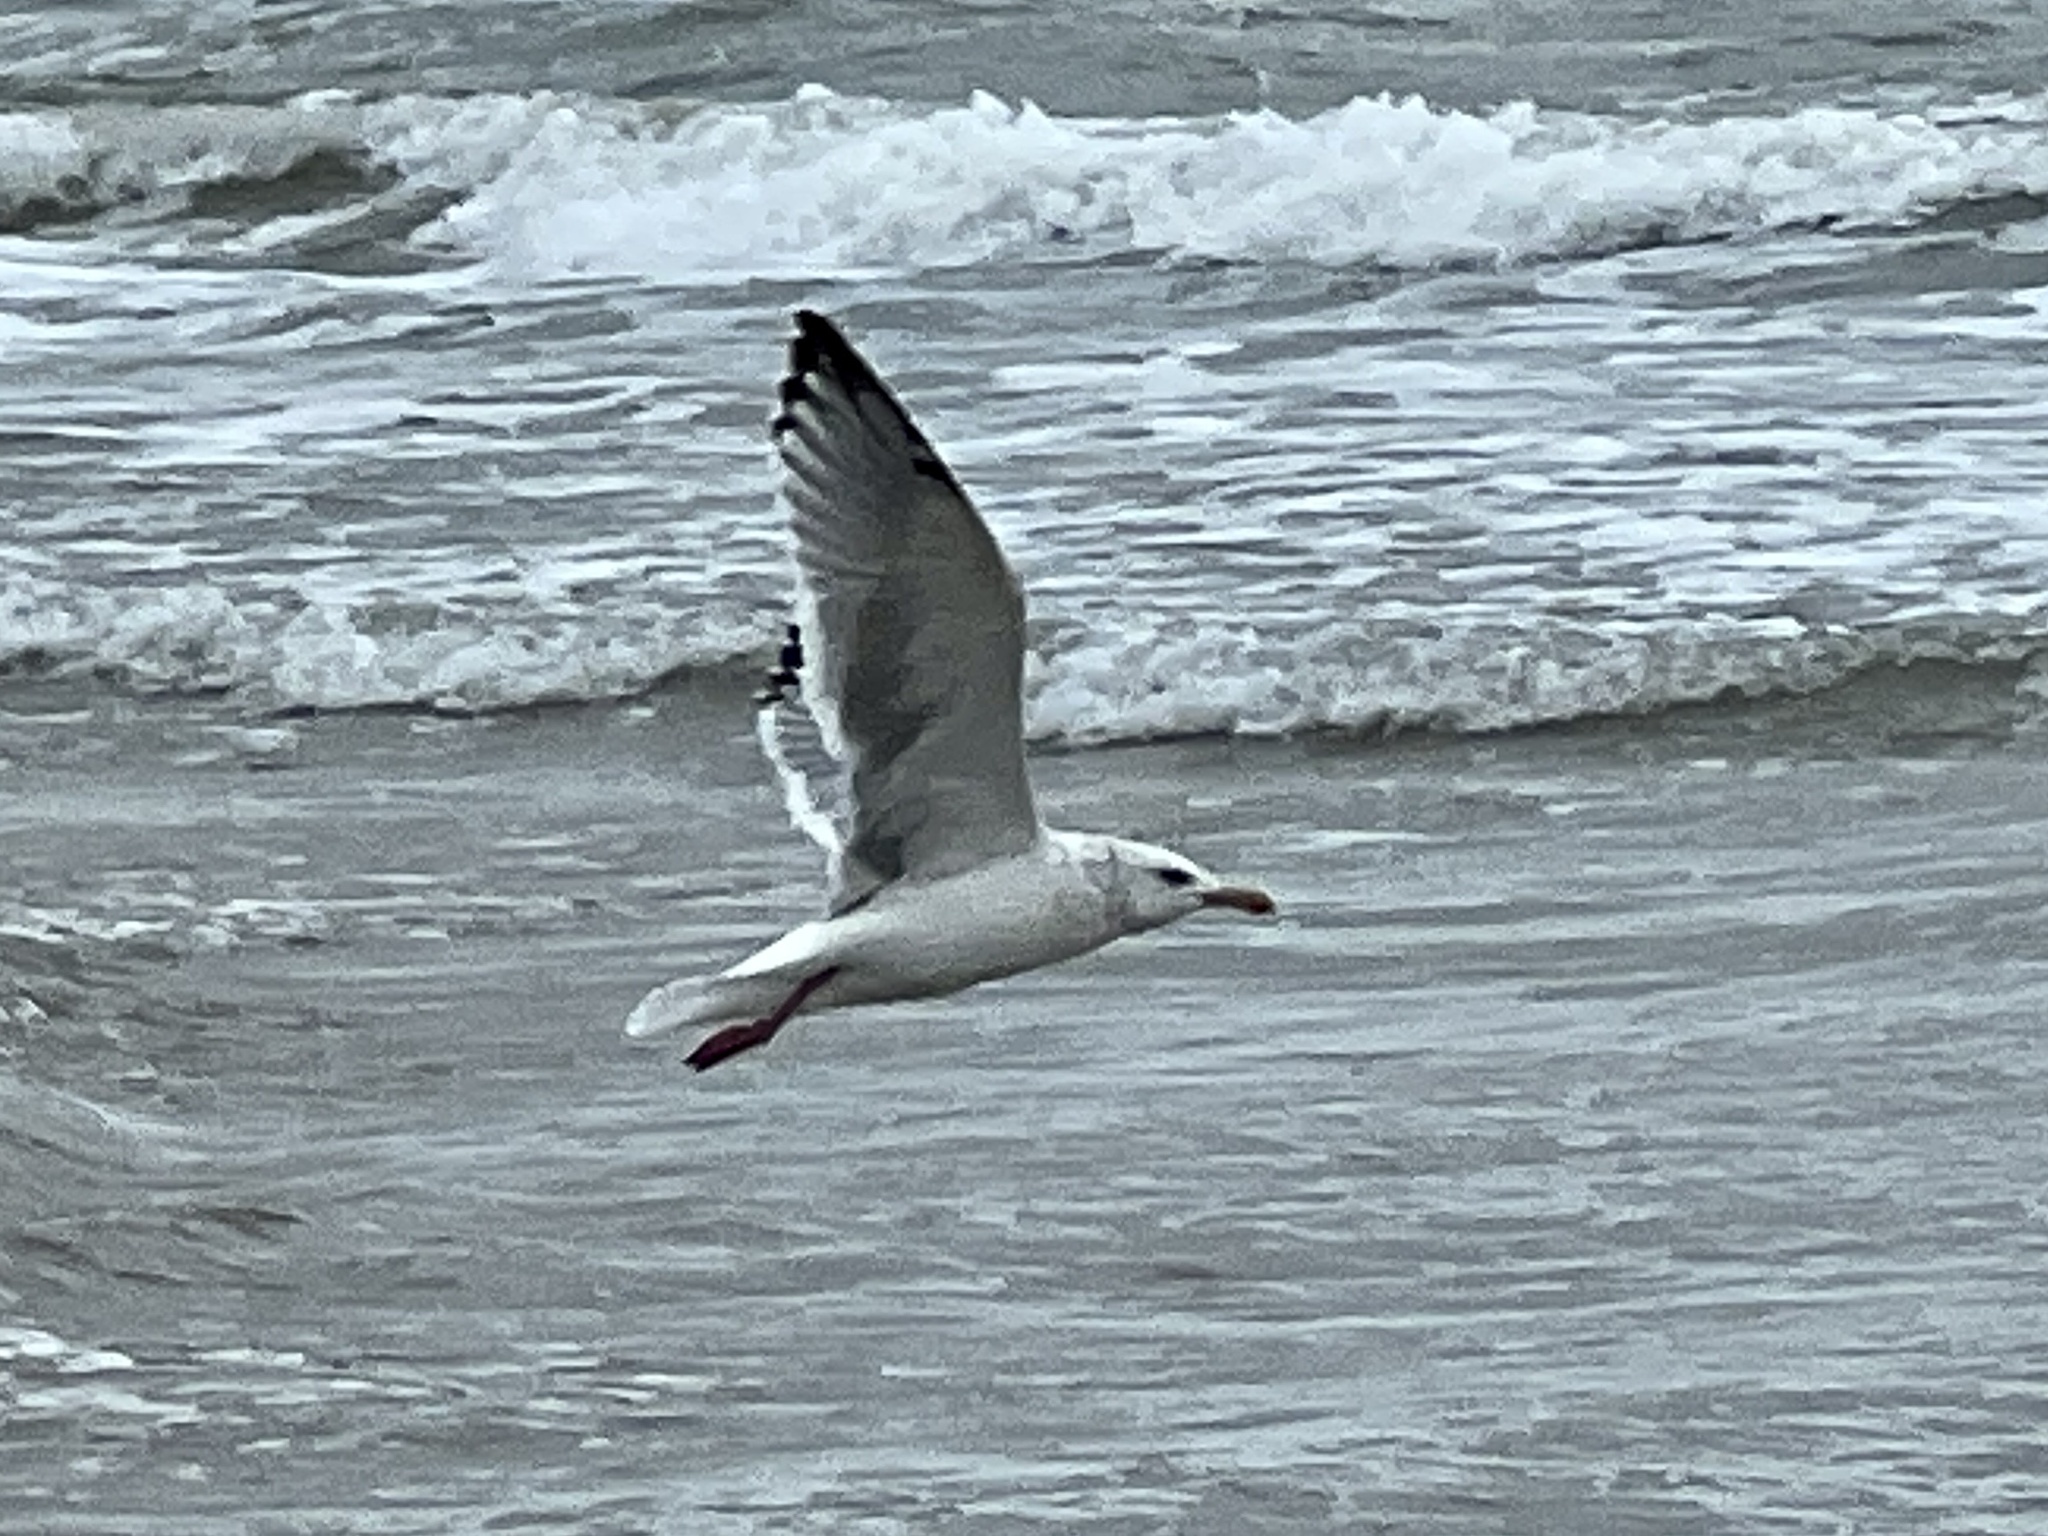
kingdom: Animalia
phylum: Chordata
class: Aves
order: Charadriiformes
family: Laridae
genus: Larus
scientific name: Larus argentatus
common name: Herring gull
